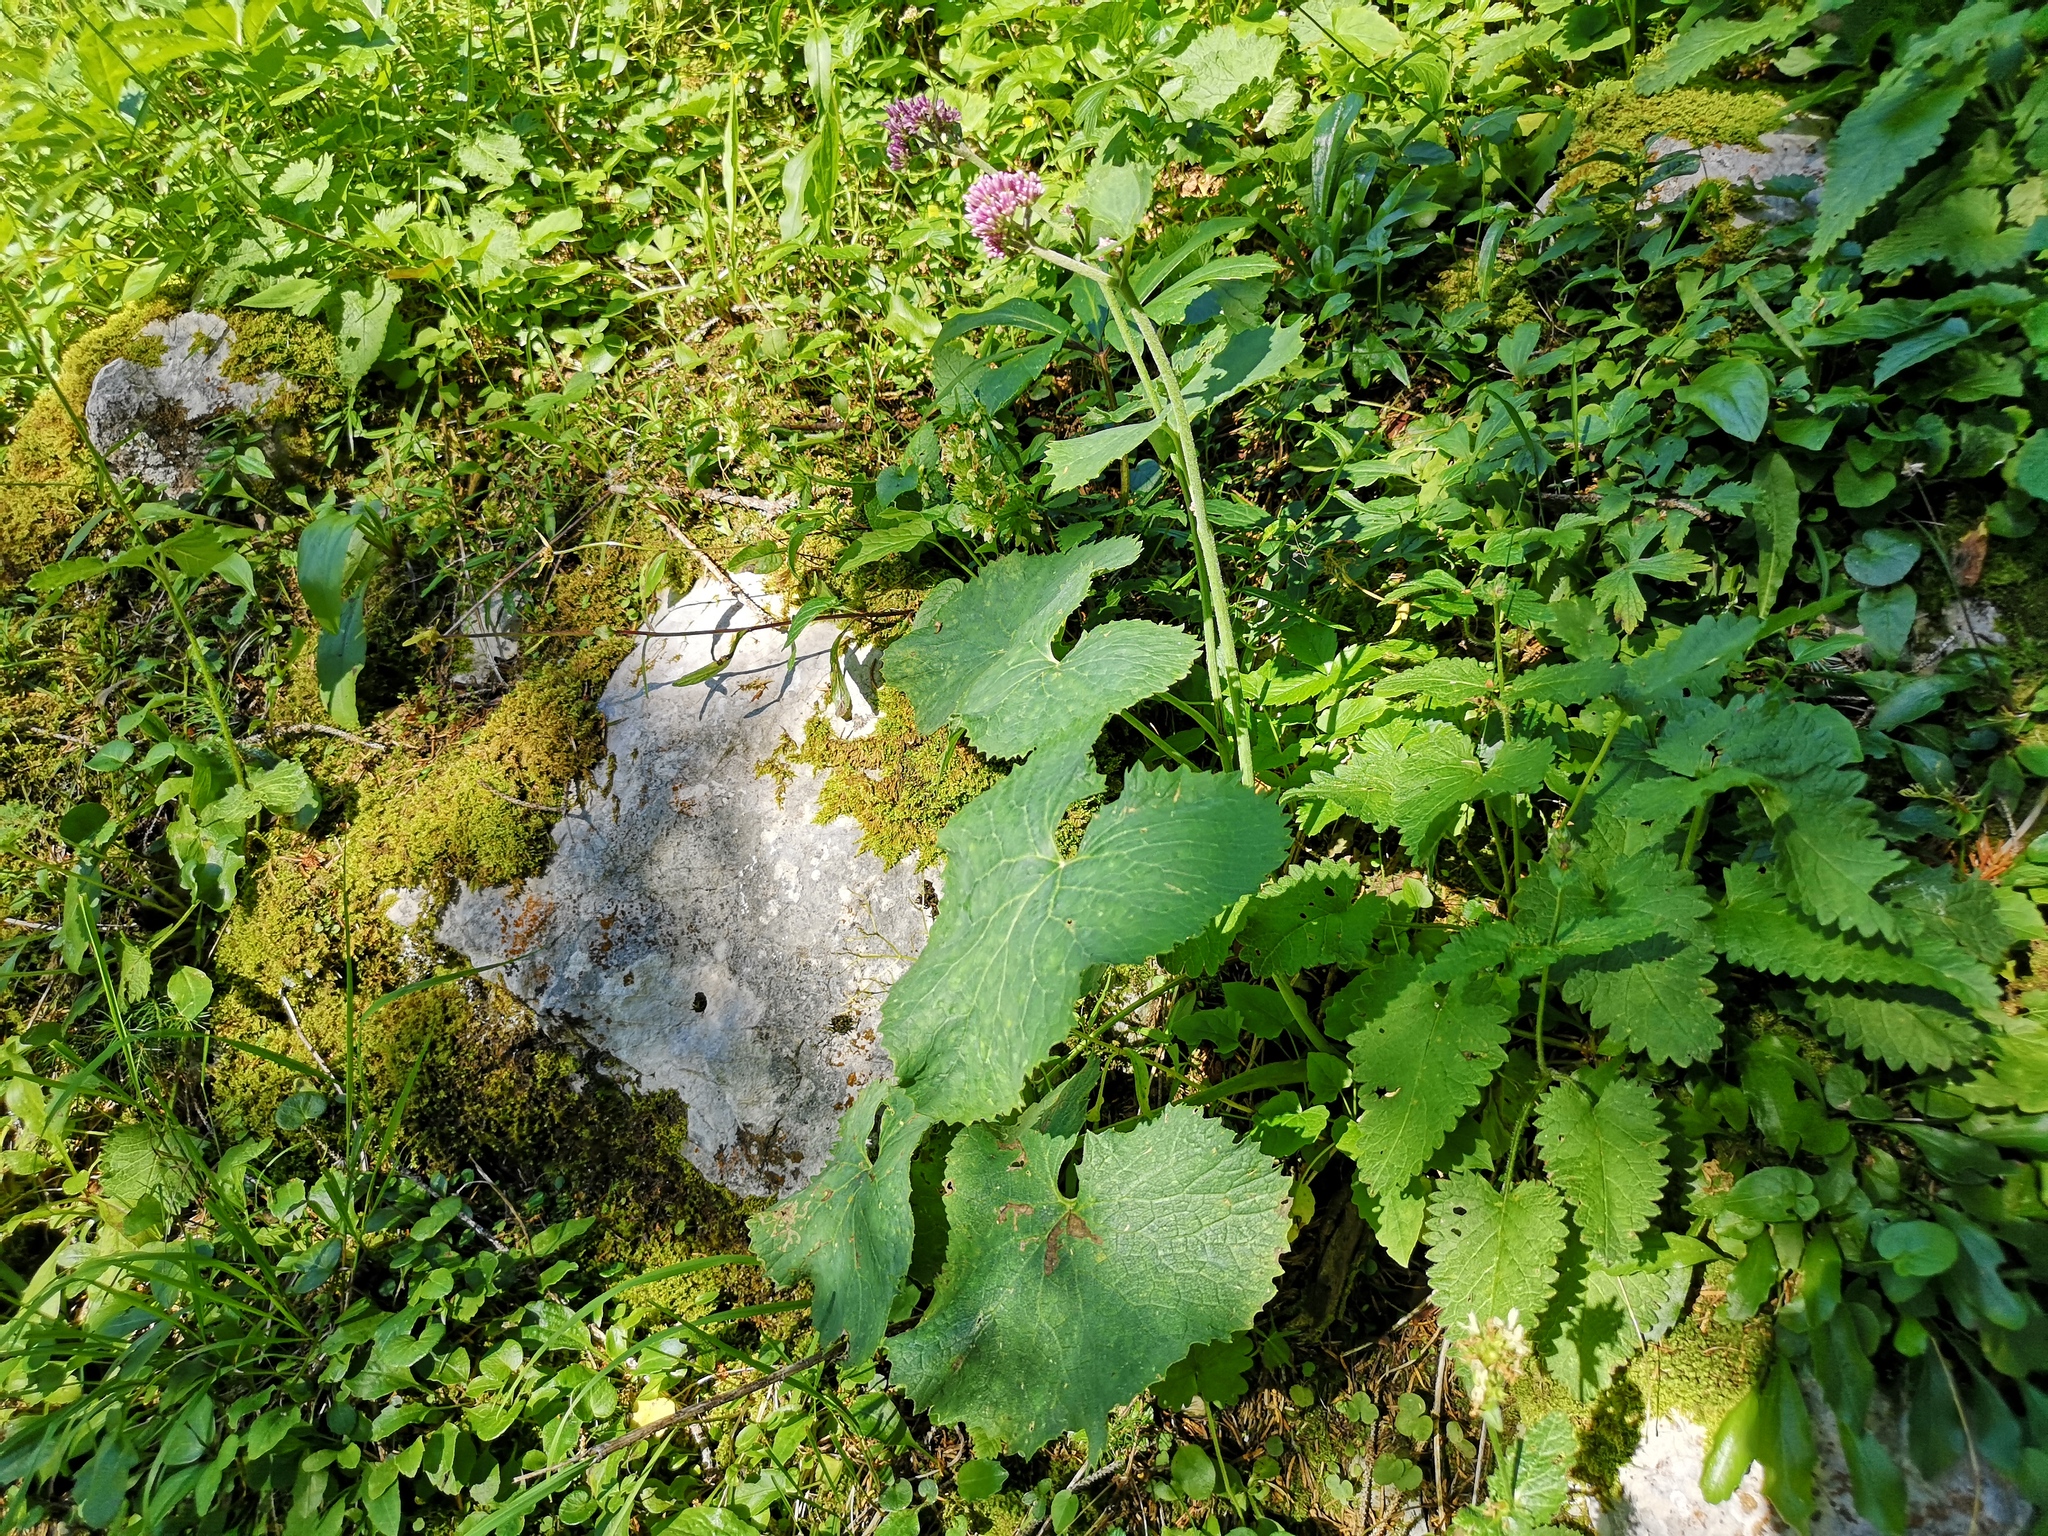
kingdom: Plantae
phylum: Tracheophyta
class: Magnoliopsida
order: Asterales
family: Asteraceae
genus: Adenostyles
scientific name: Adenostyles alpina
